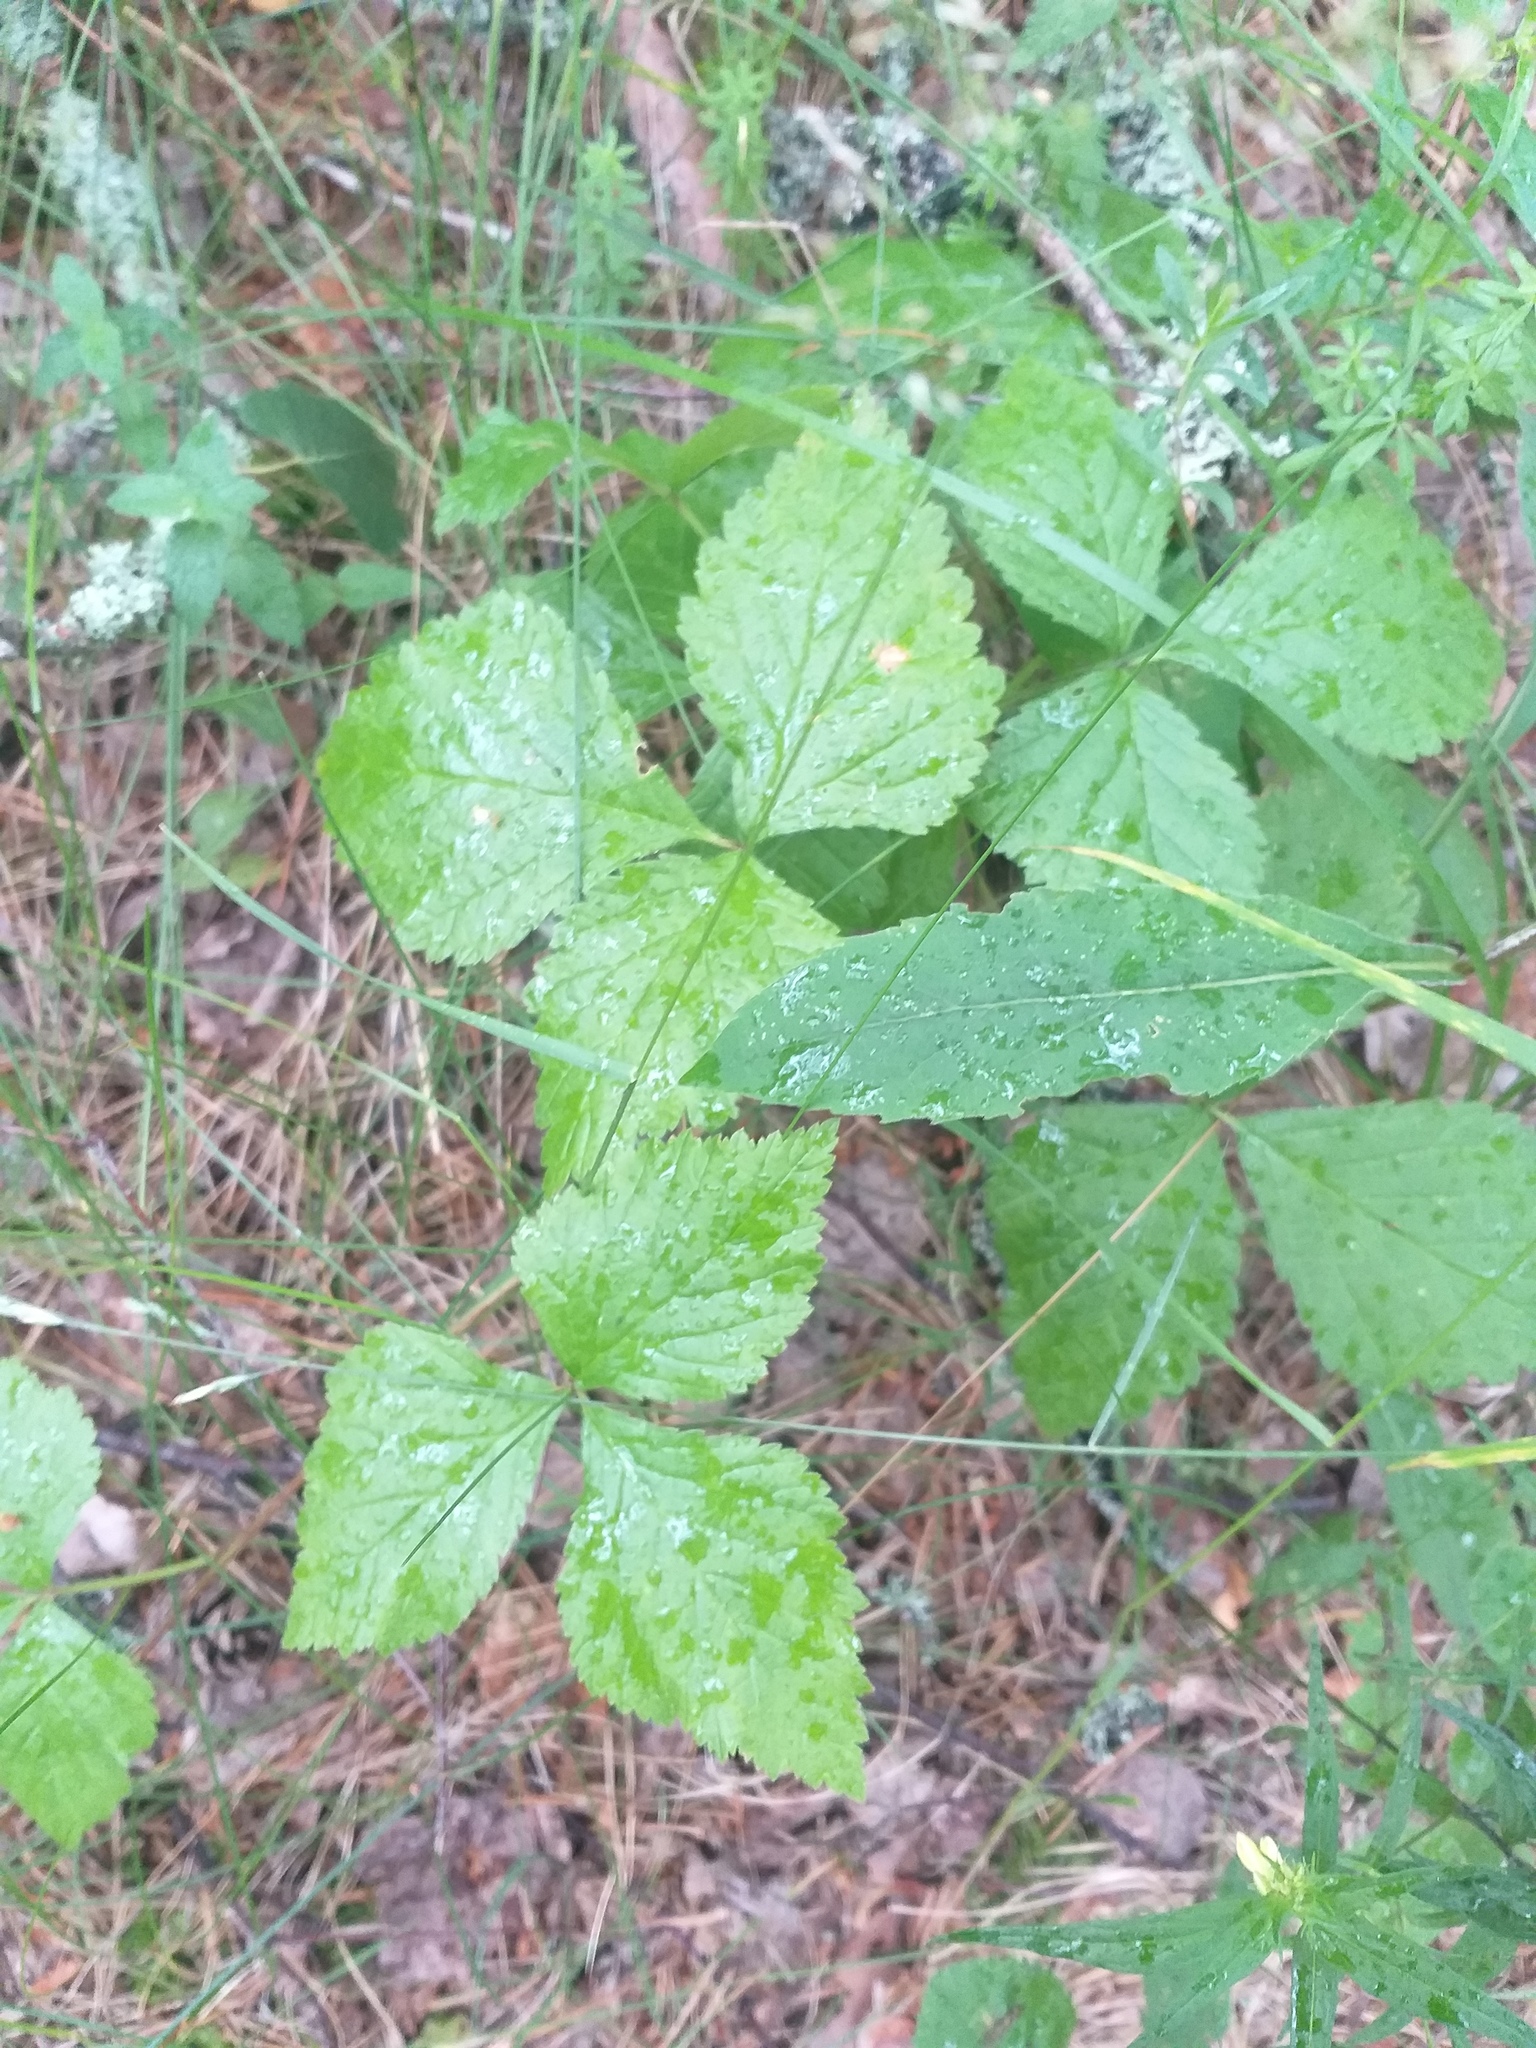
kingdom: Plantae
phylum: Tracheophyta
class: Magnoliopsida
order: Rosales
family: Rosaceae
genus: Rubus
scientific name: Rubus saxatilis
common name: Stone bramble
